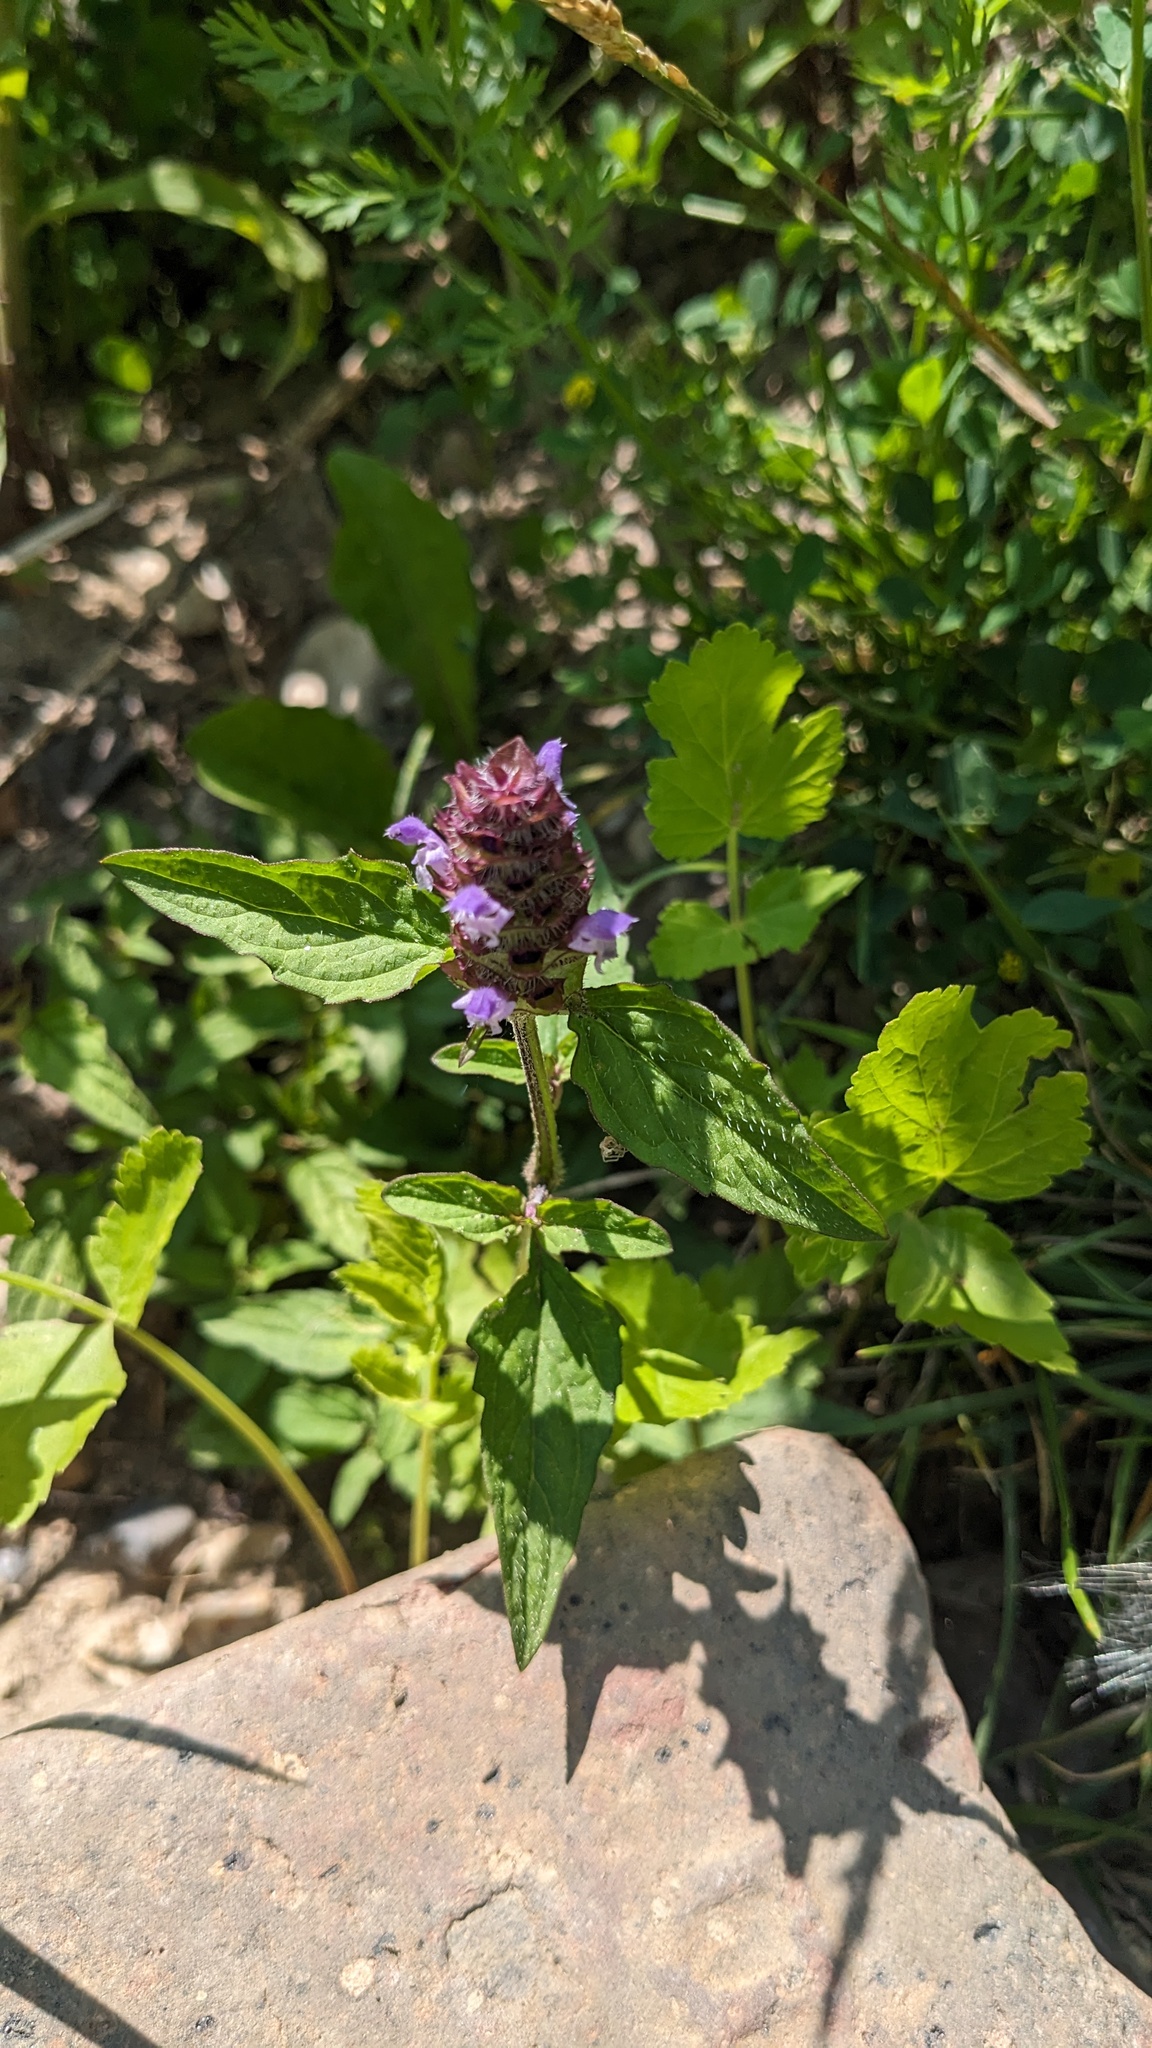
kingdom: Plantae
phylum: Tracheophyta
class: Magnoliopsida
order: Lamiales
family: Lamiaceae
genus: Prunella
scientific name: Prunella vulgaris
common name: Heal-all
